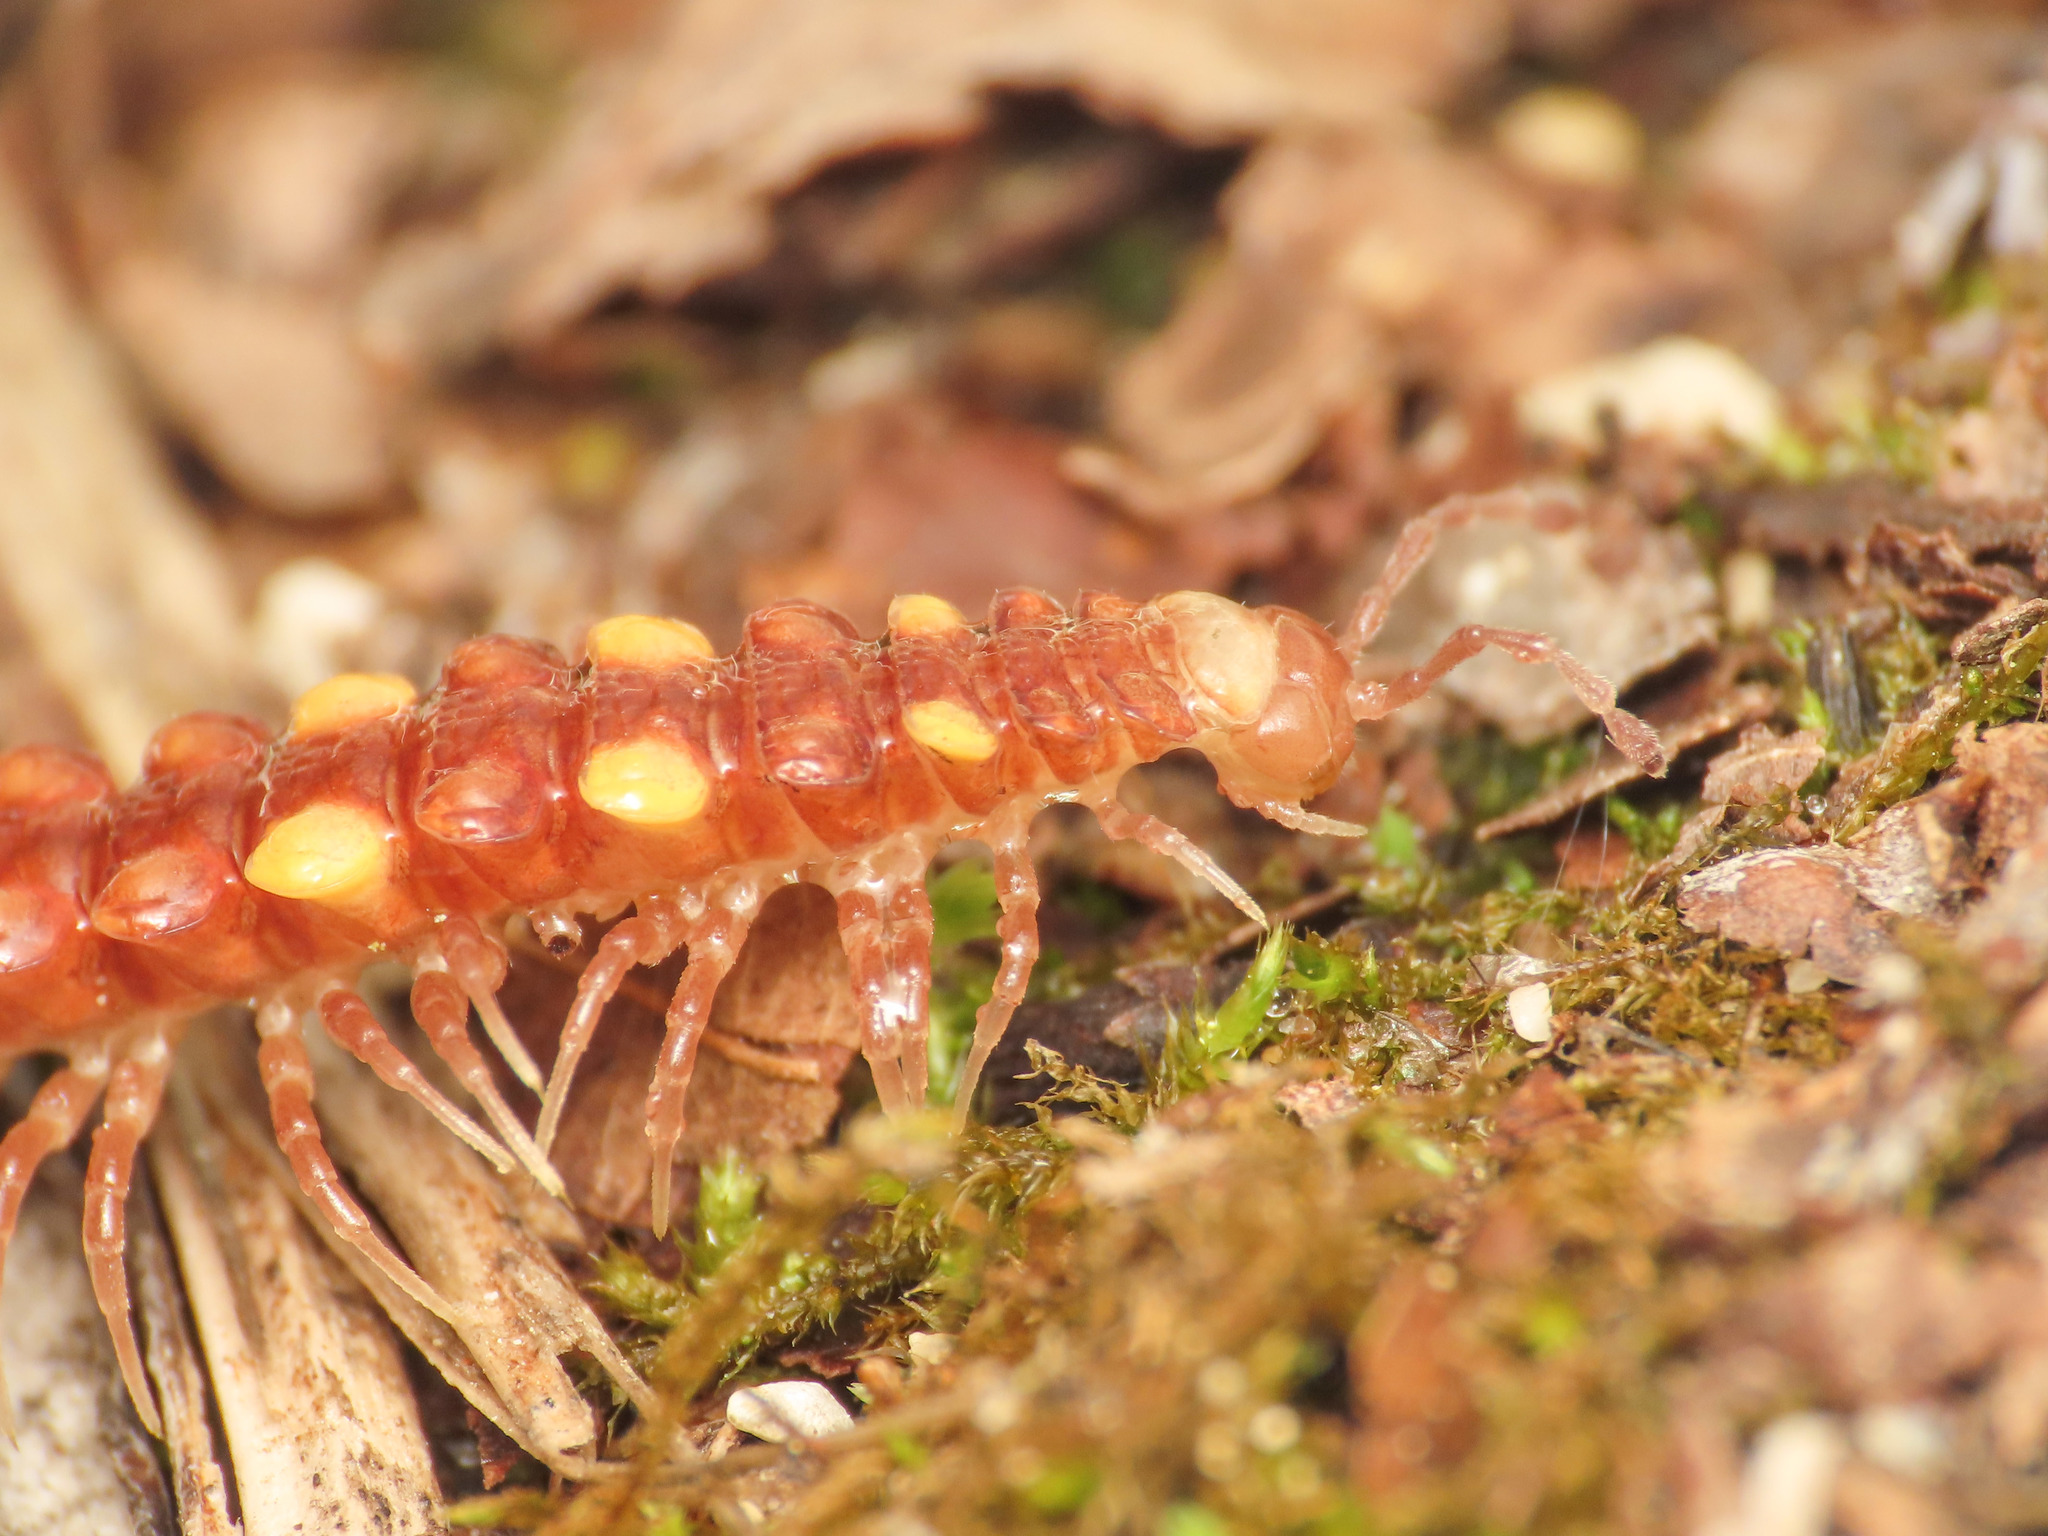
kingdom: Animalia
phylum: Arthropoda
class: Diplopoda
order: Polydesmida
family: Polydesmidae
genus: Polydesmus
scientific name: Polydesmus collaris
